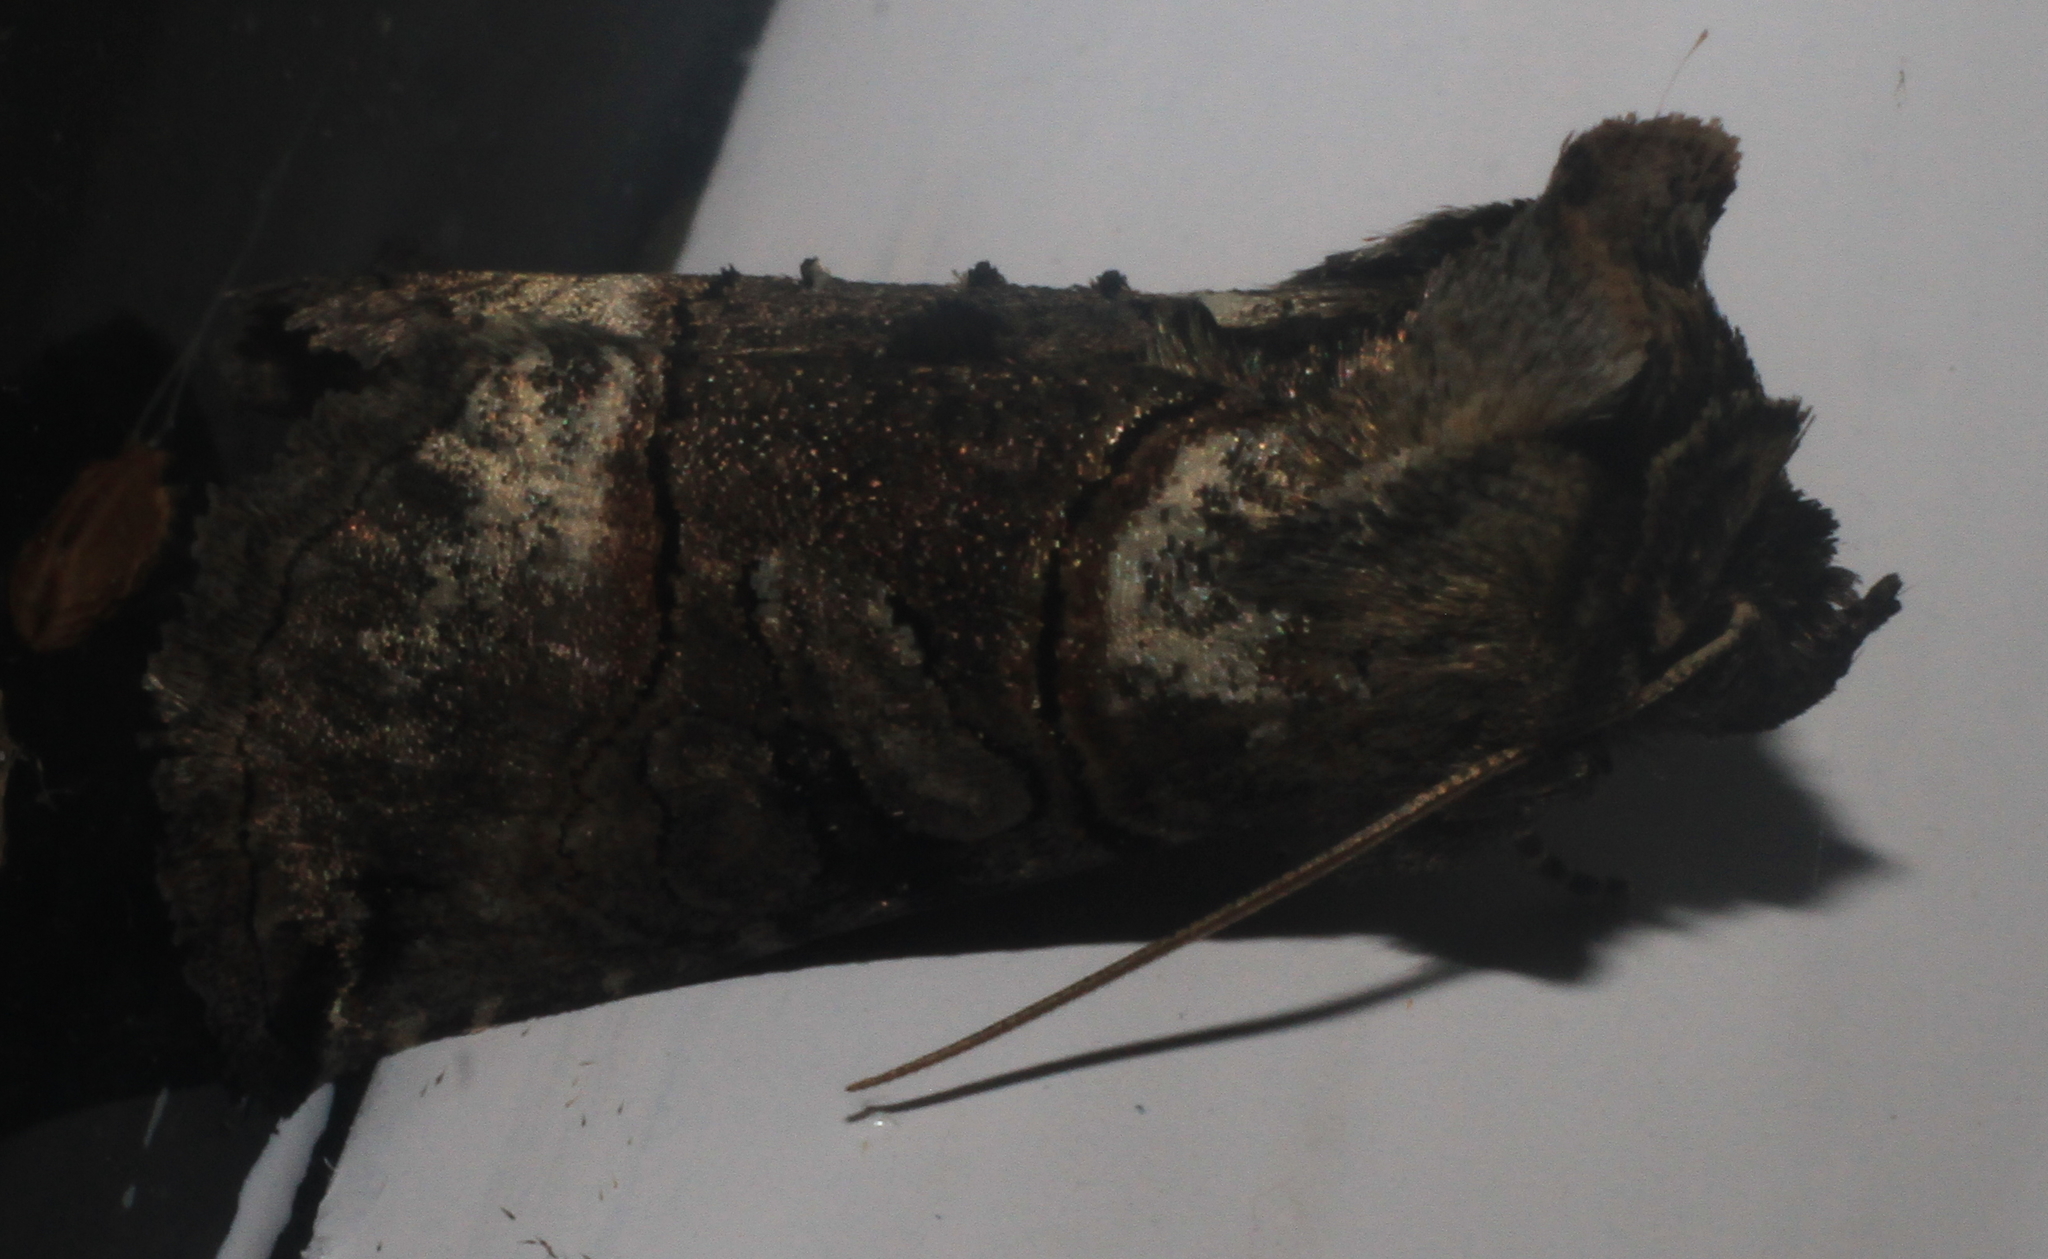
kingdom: Animalia
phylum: Arthropoda
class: Insecta
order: Lepidoptera
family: Noctuidae
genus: Abrostola
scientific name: Abrostola tripartita
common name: Spectacle
